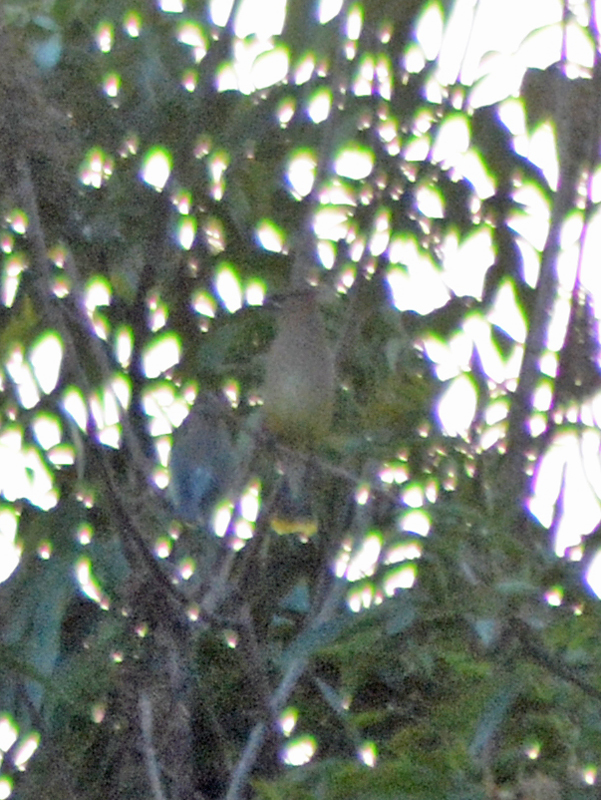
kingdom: Animalia
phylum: Chordata
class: Aves
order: Passeriformes
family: Bombycillidae
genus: Bombycilla
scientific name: Bombycilla cedrorum
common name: Cedar waxwing
